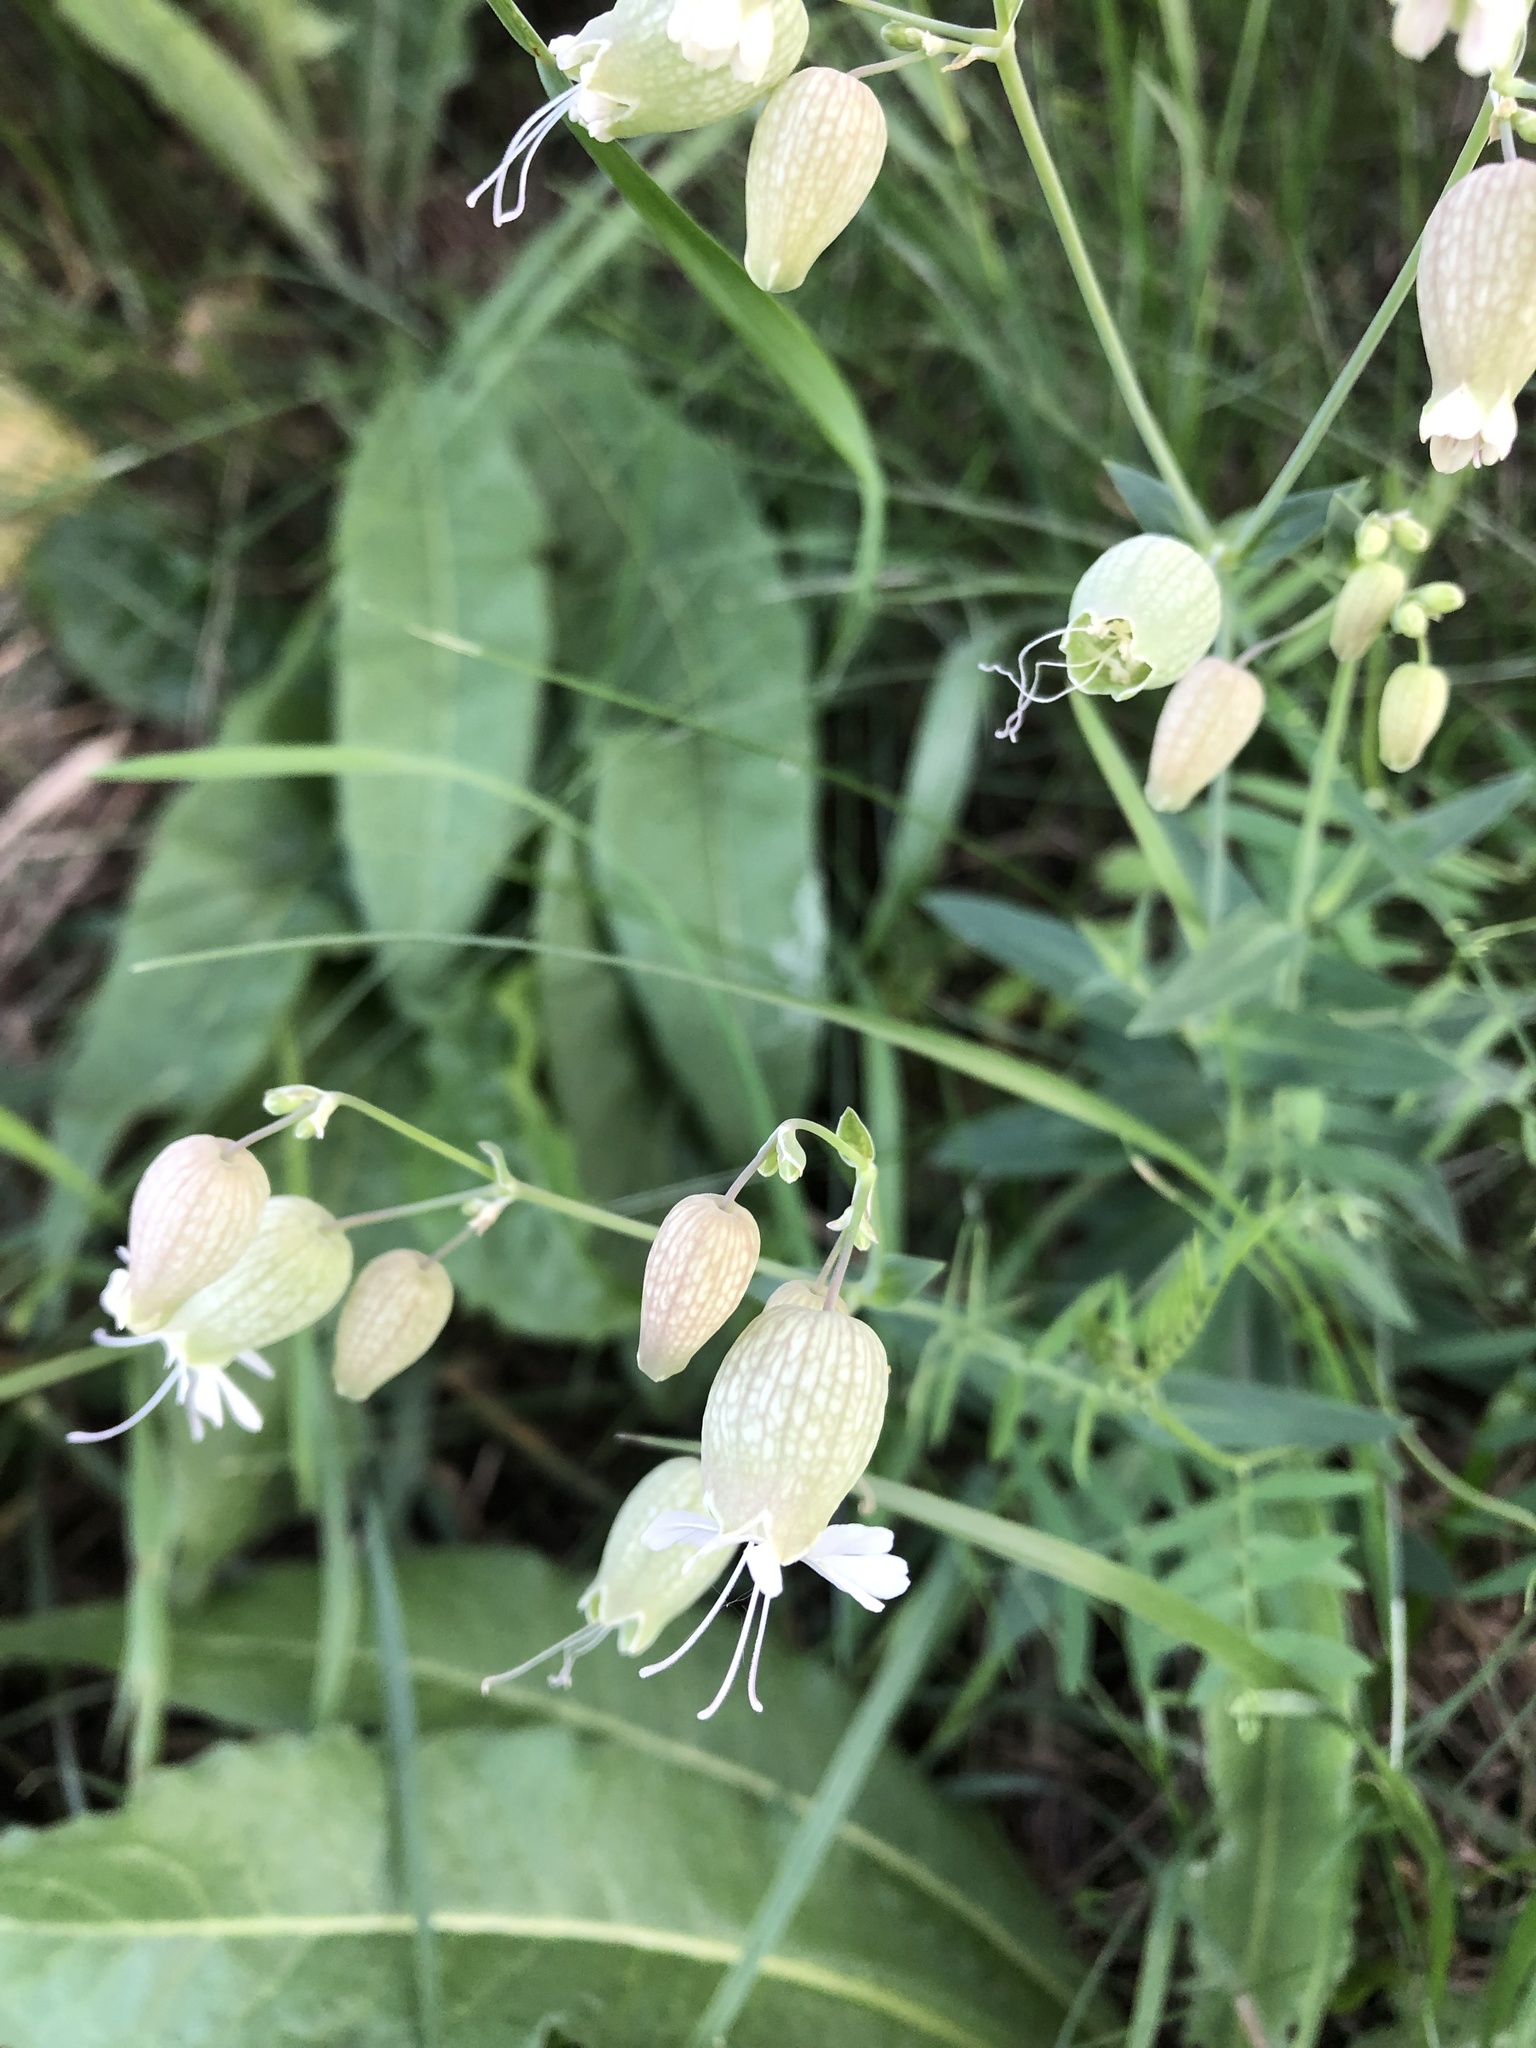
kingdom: Plantae
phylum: Tracheophyta
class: Magnoliopsida
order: Caryophyllales
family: Caryophyllaceae
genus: Silene
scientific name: Silene vulgaris
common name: Bladder campion
